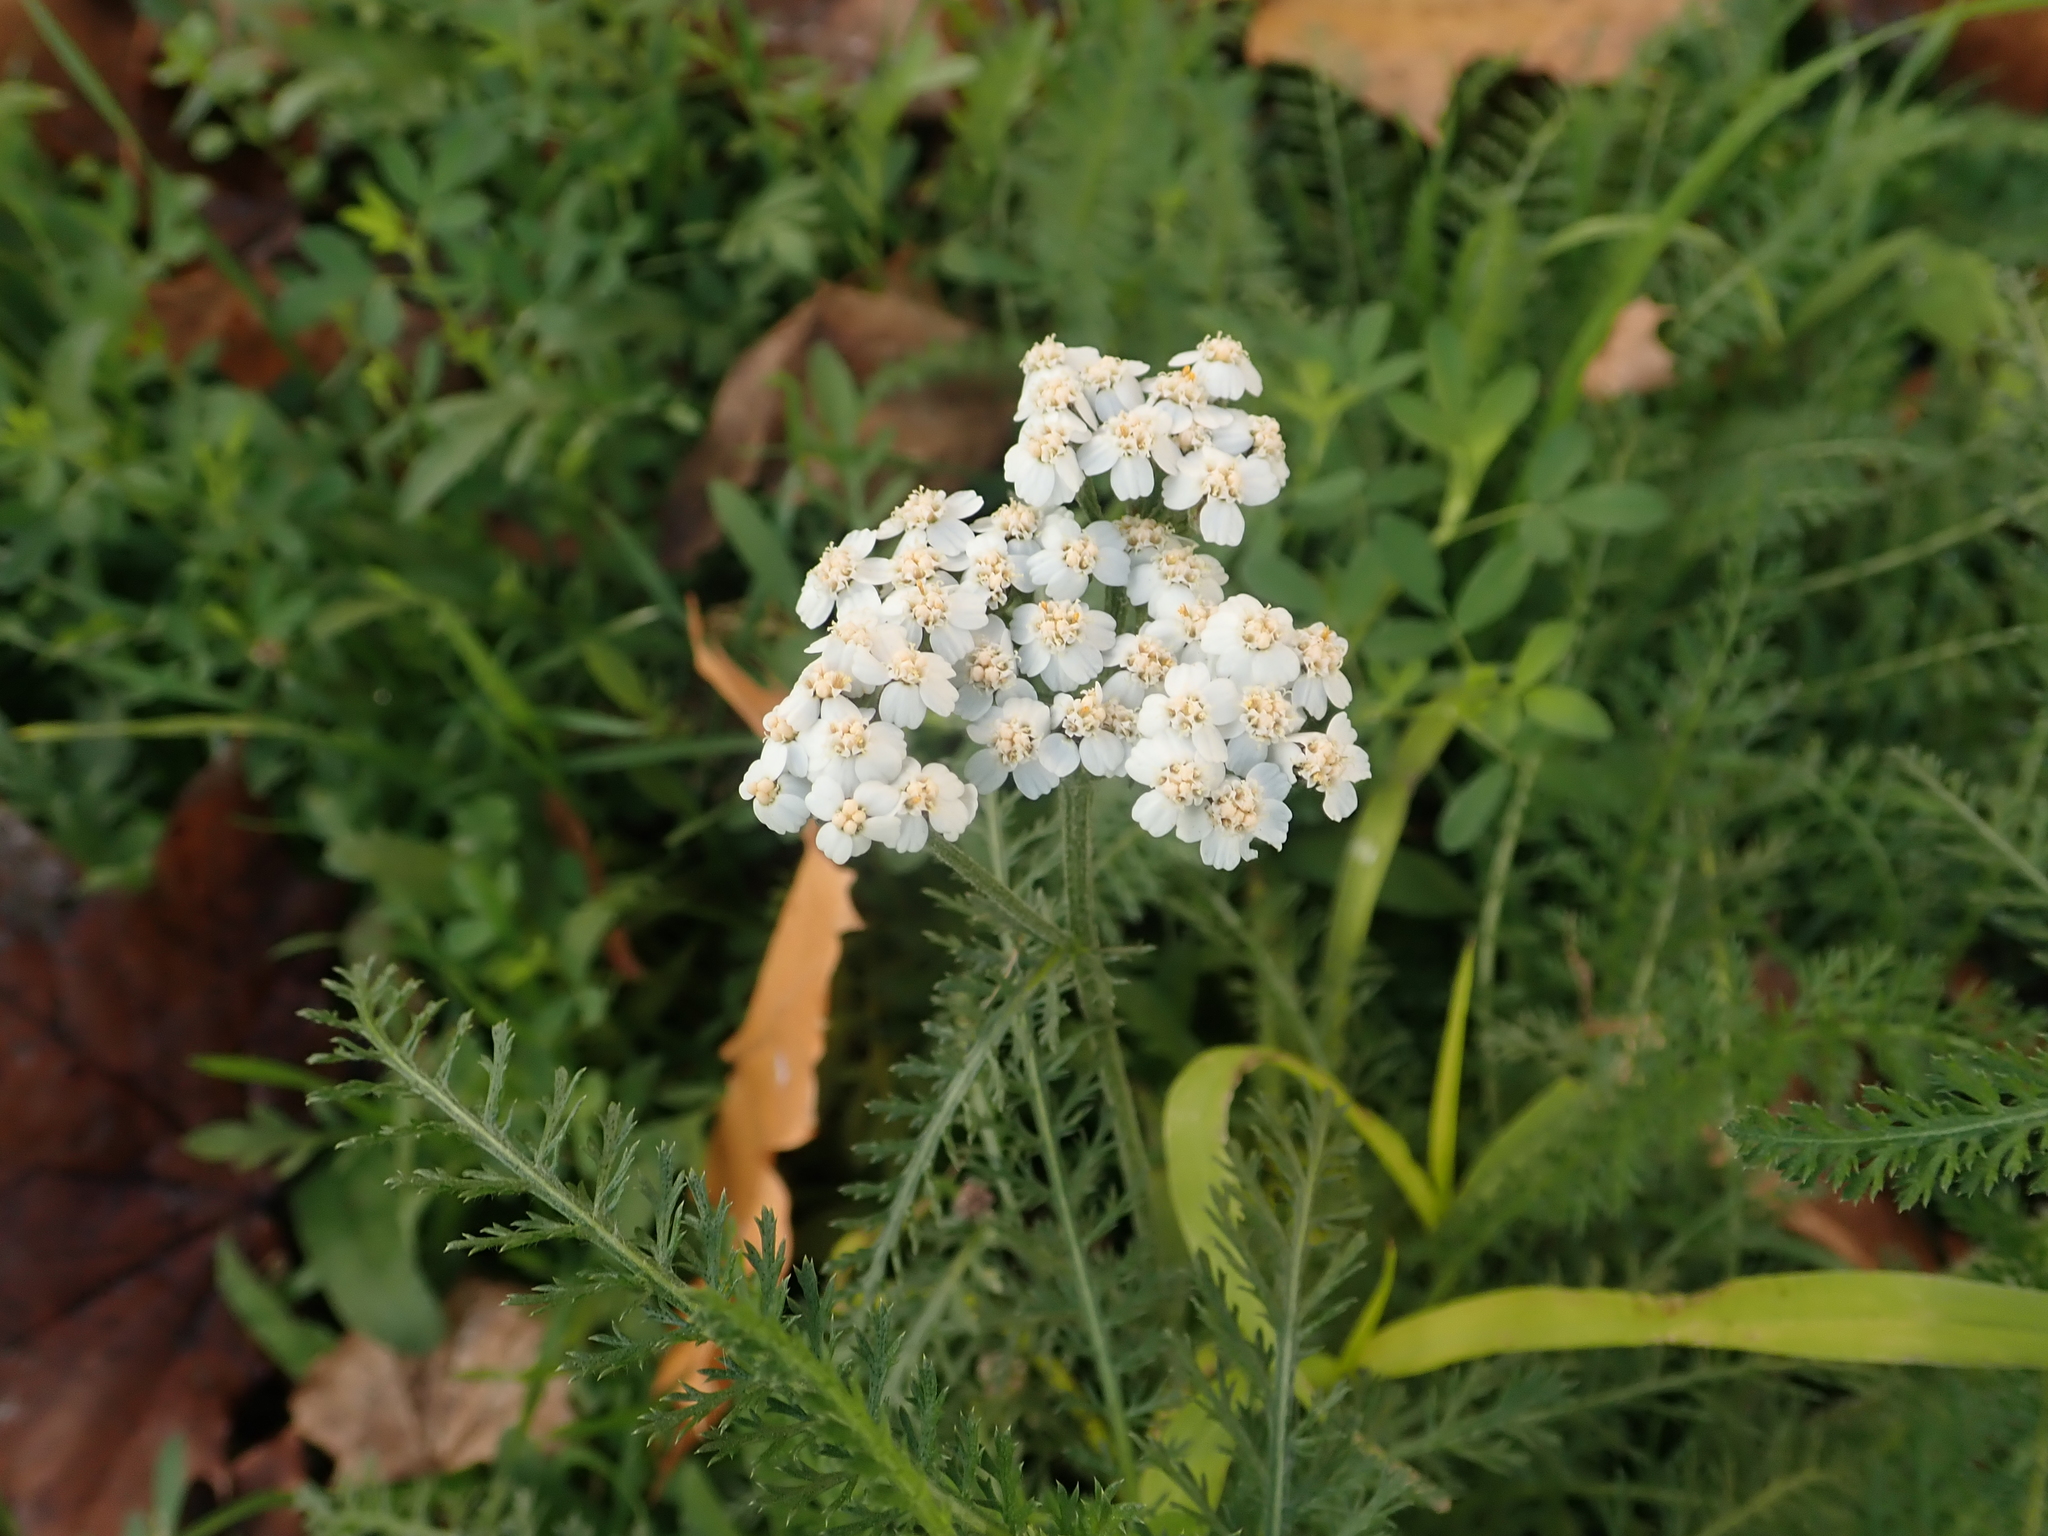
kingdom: Plantae
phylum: Tracheophyta
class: Magnoliopsida
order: Asterales
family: Asteraceae
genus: Achillea
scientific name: Achillea millefolium
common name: Yarrow
